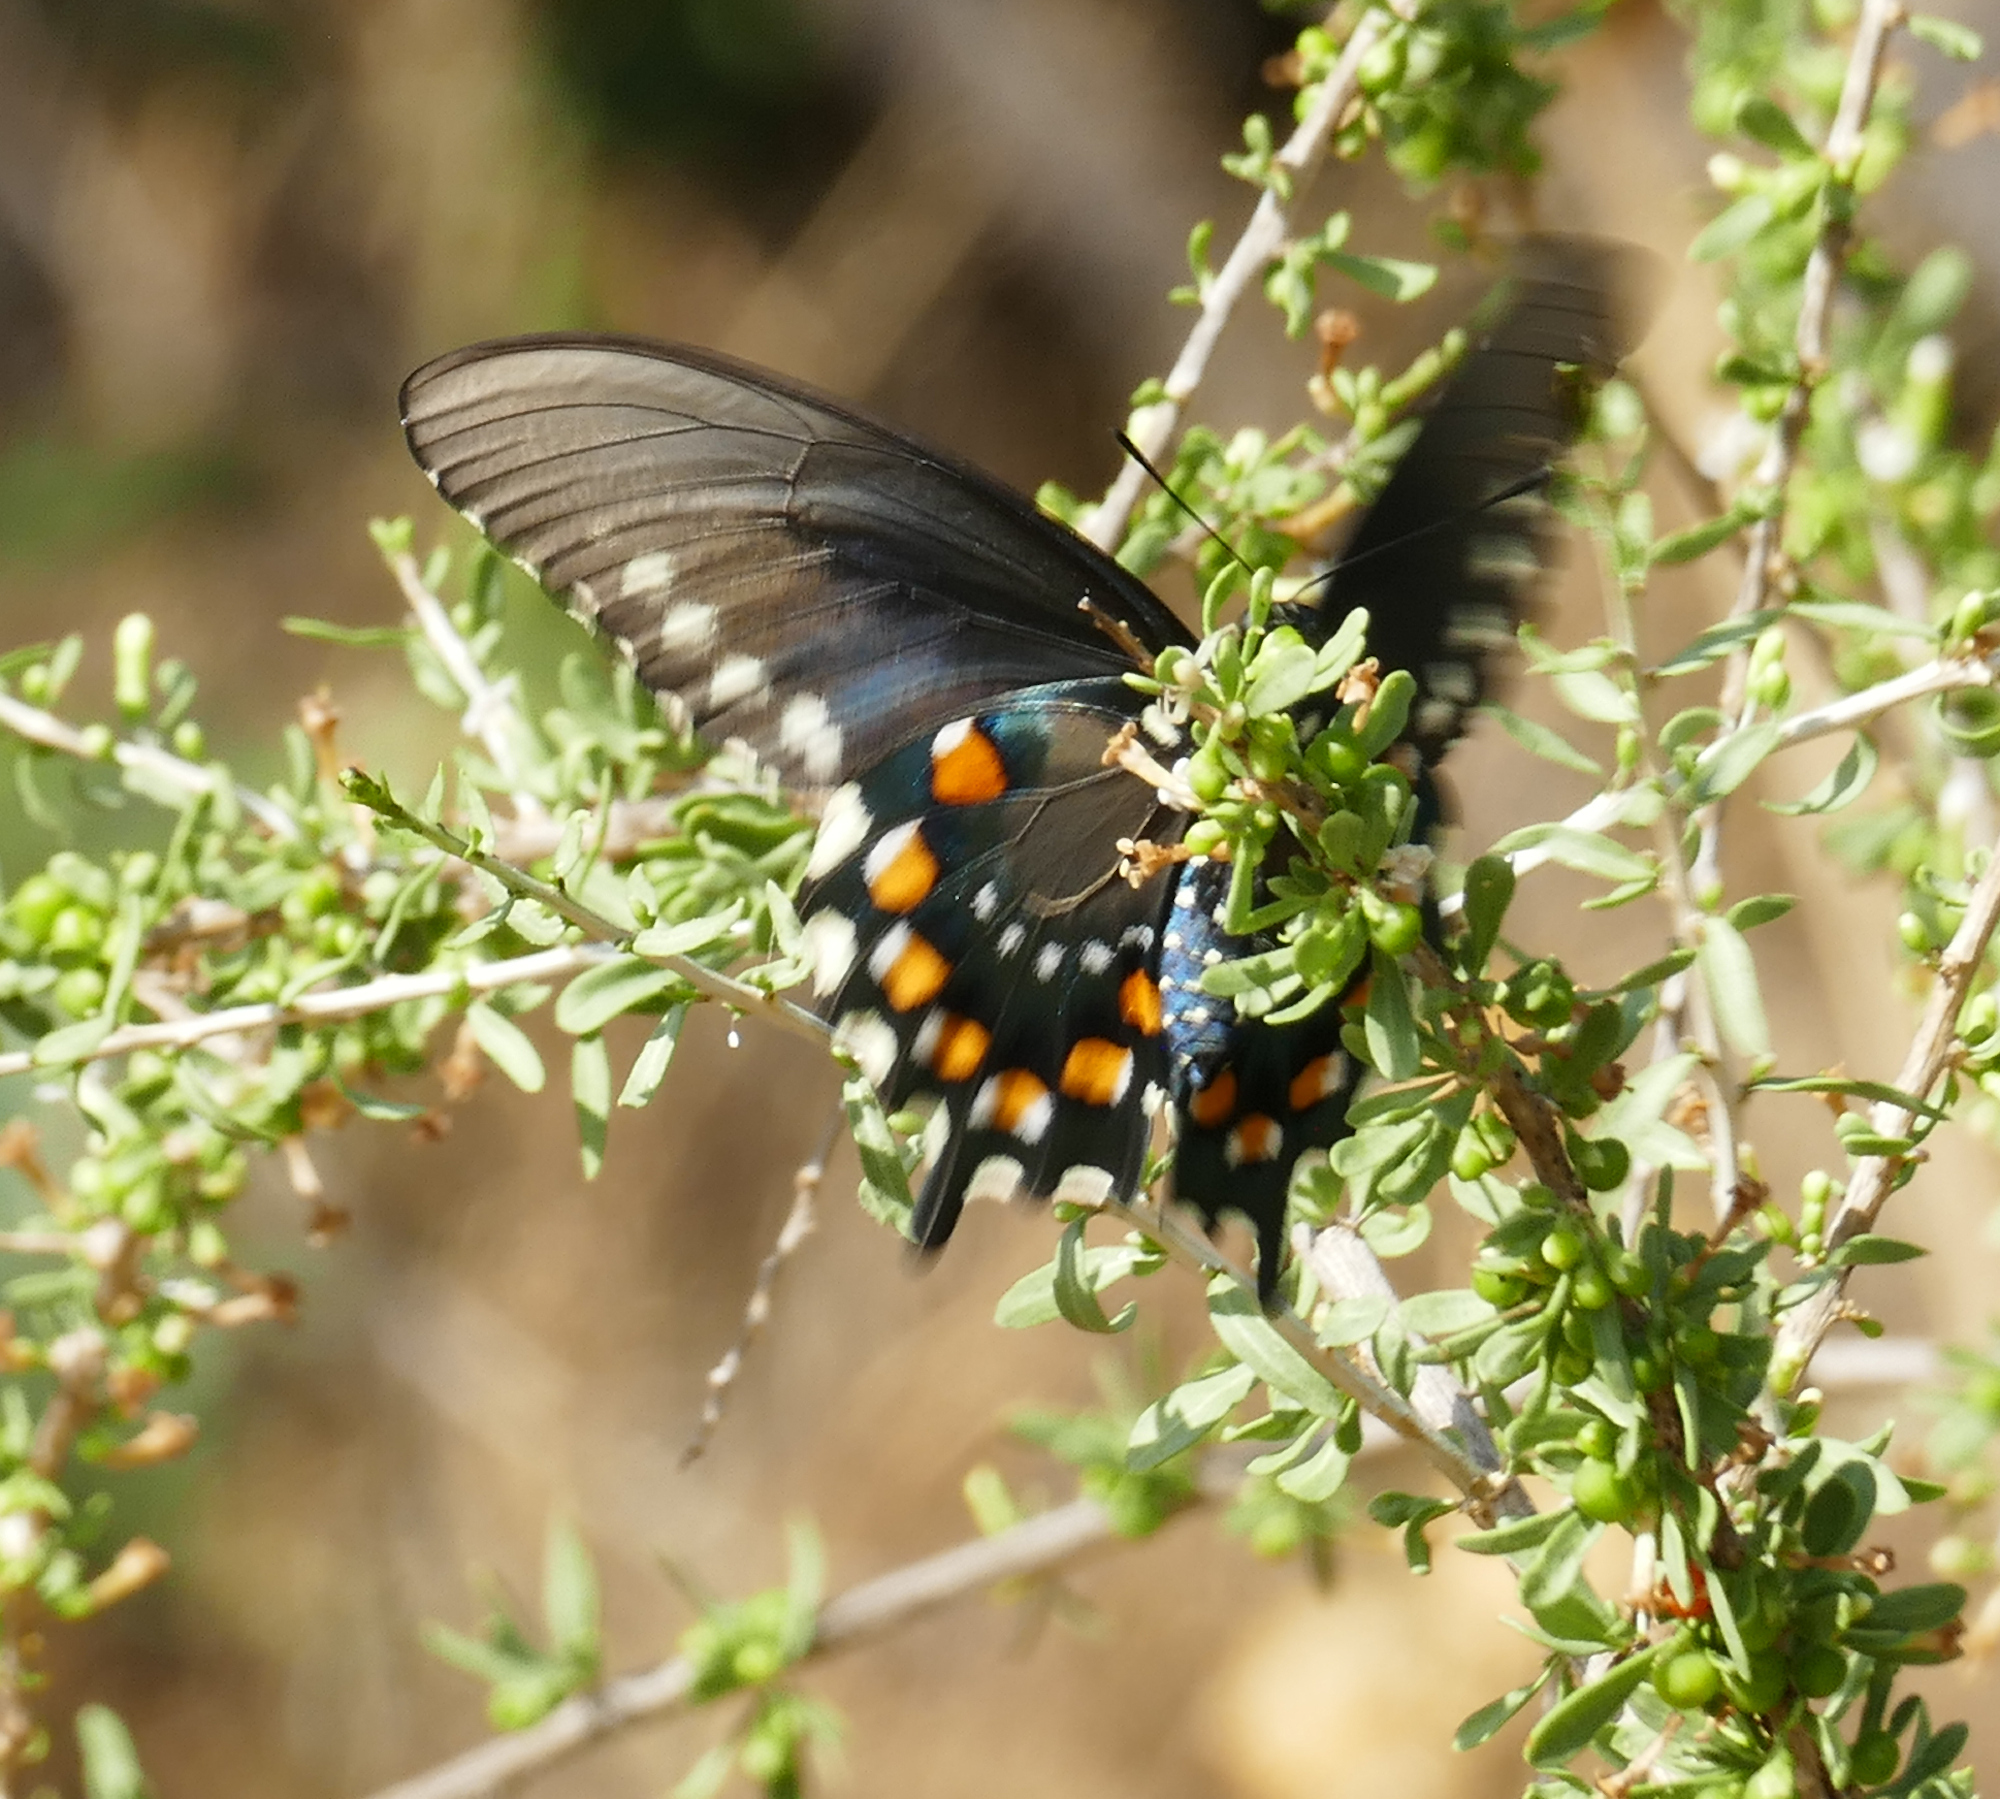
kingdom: Animalia
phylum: Arthropoda
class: Insecta
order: Lepidoptera
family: Papilionidae
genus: Battus
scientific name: Battus philenor
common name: Pipevine swallowtail
